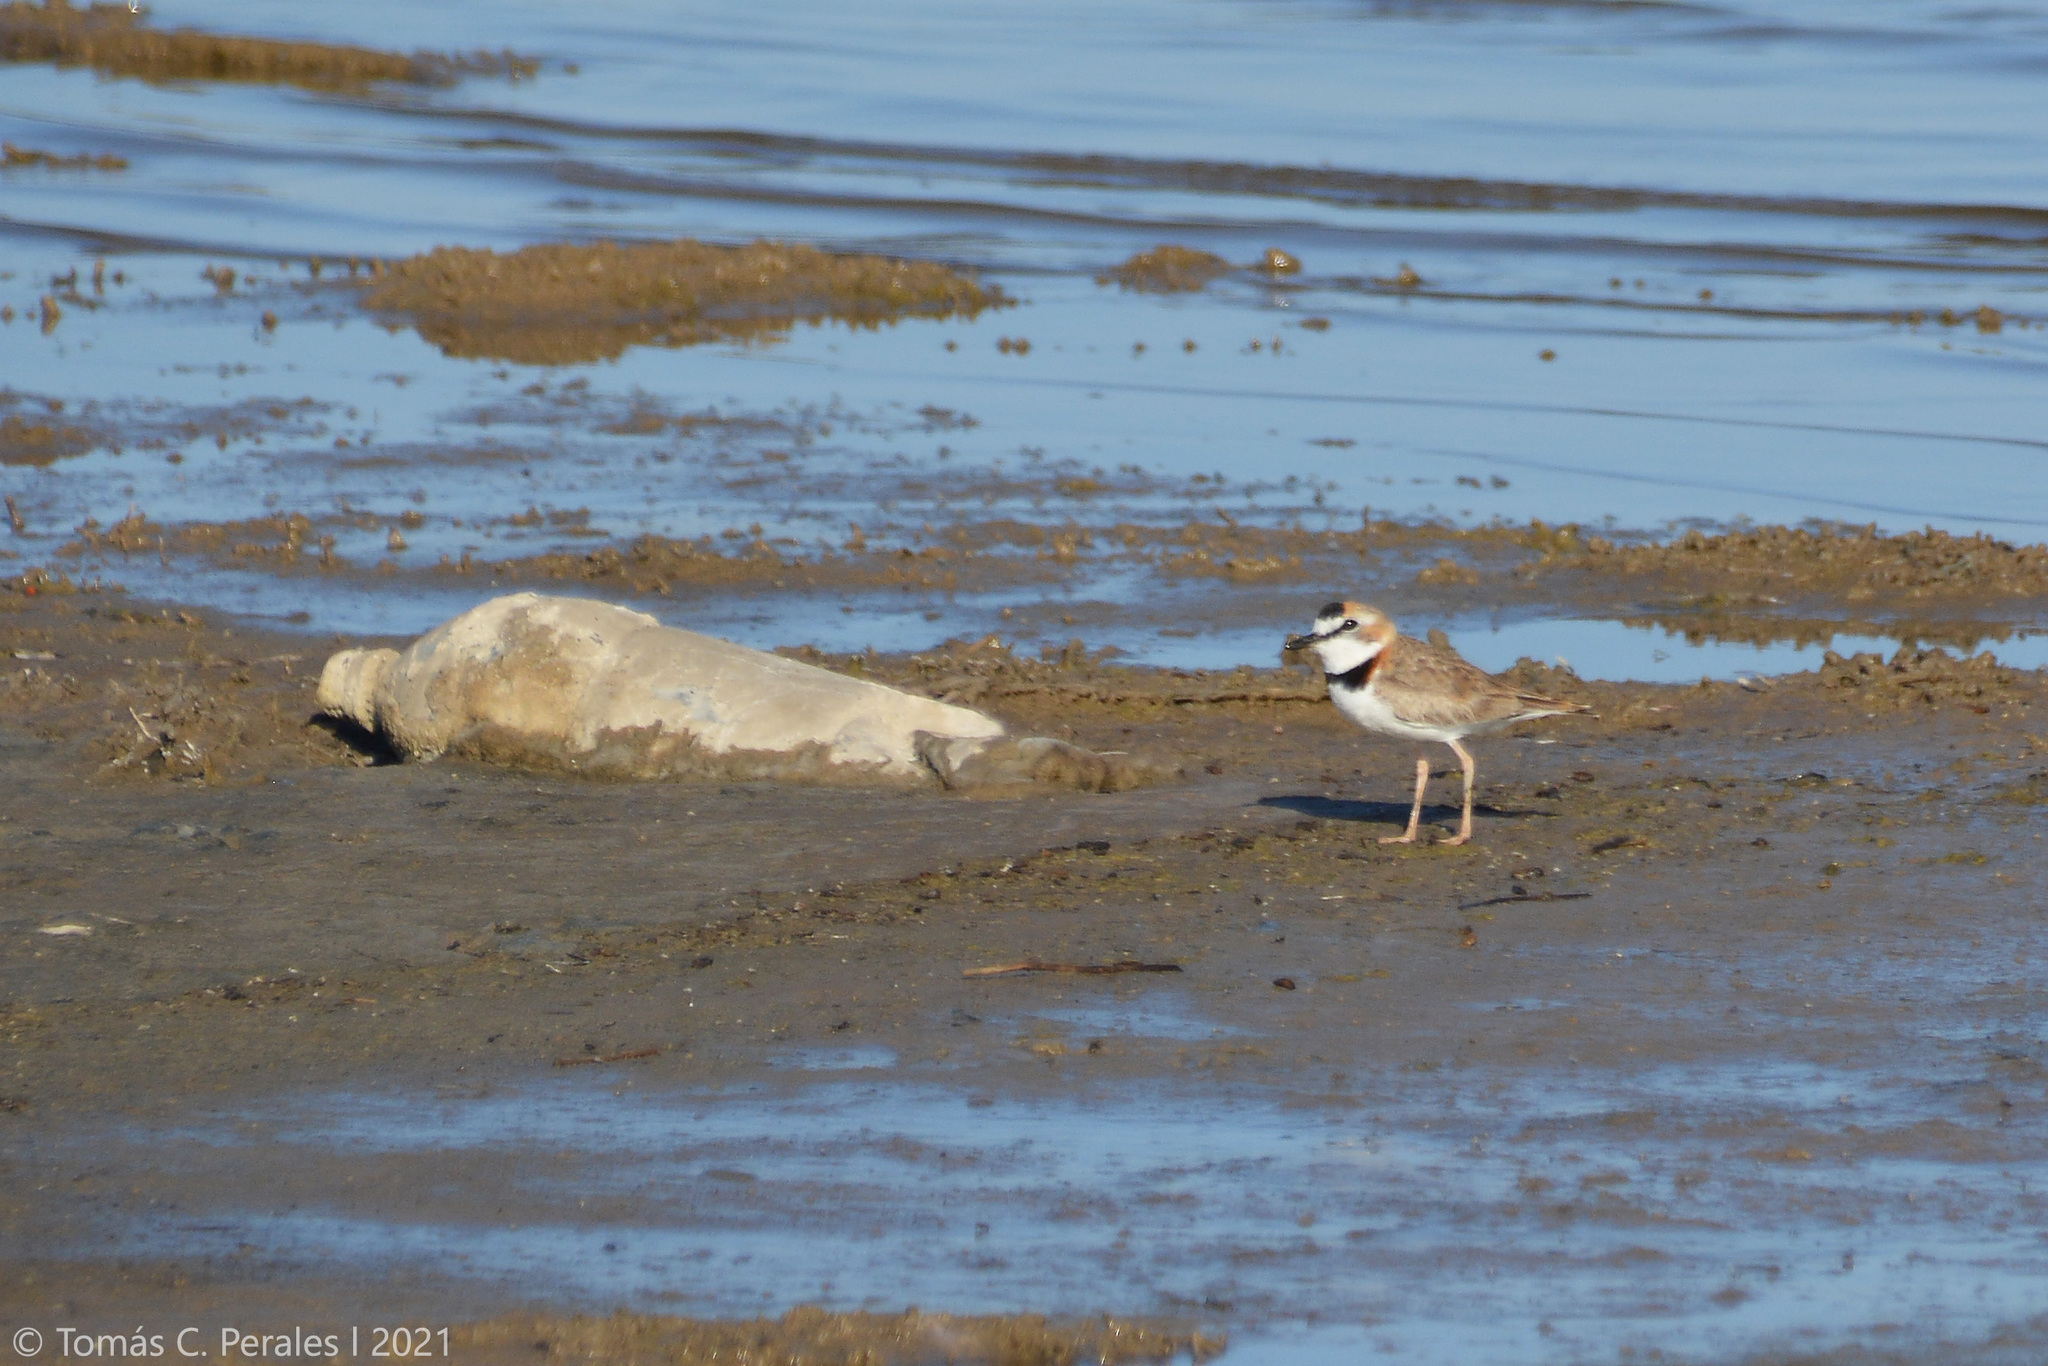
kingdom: Animalia
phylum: Chordata
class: Aves
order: Charadriiformes
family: Charadriidae
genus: Anarhynchus
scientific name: Anarhynchus
